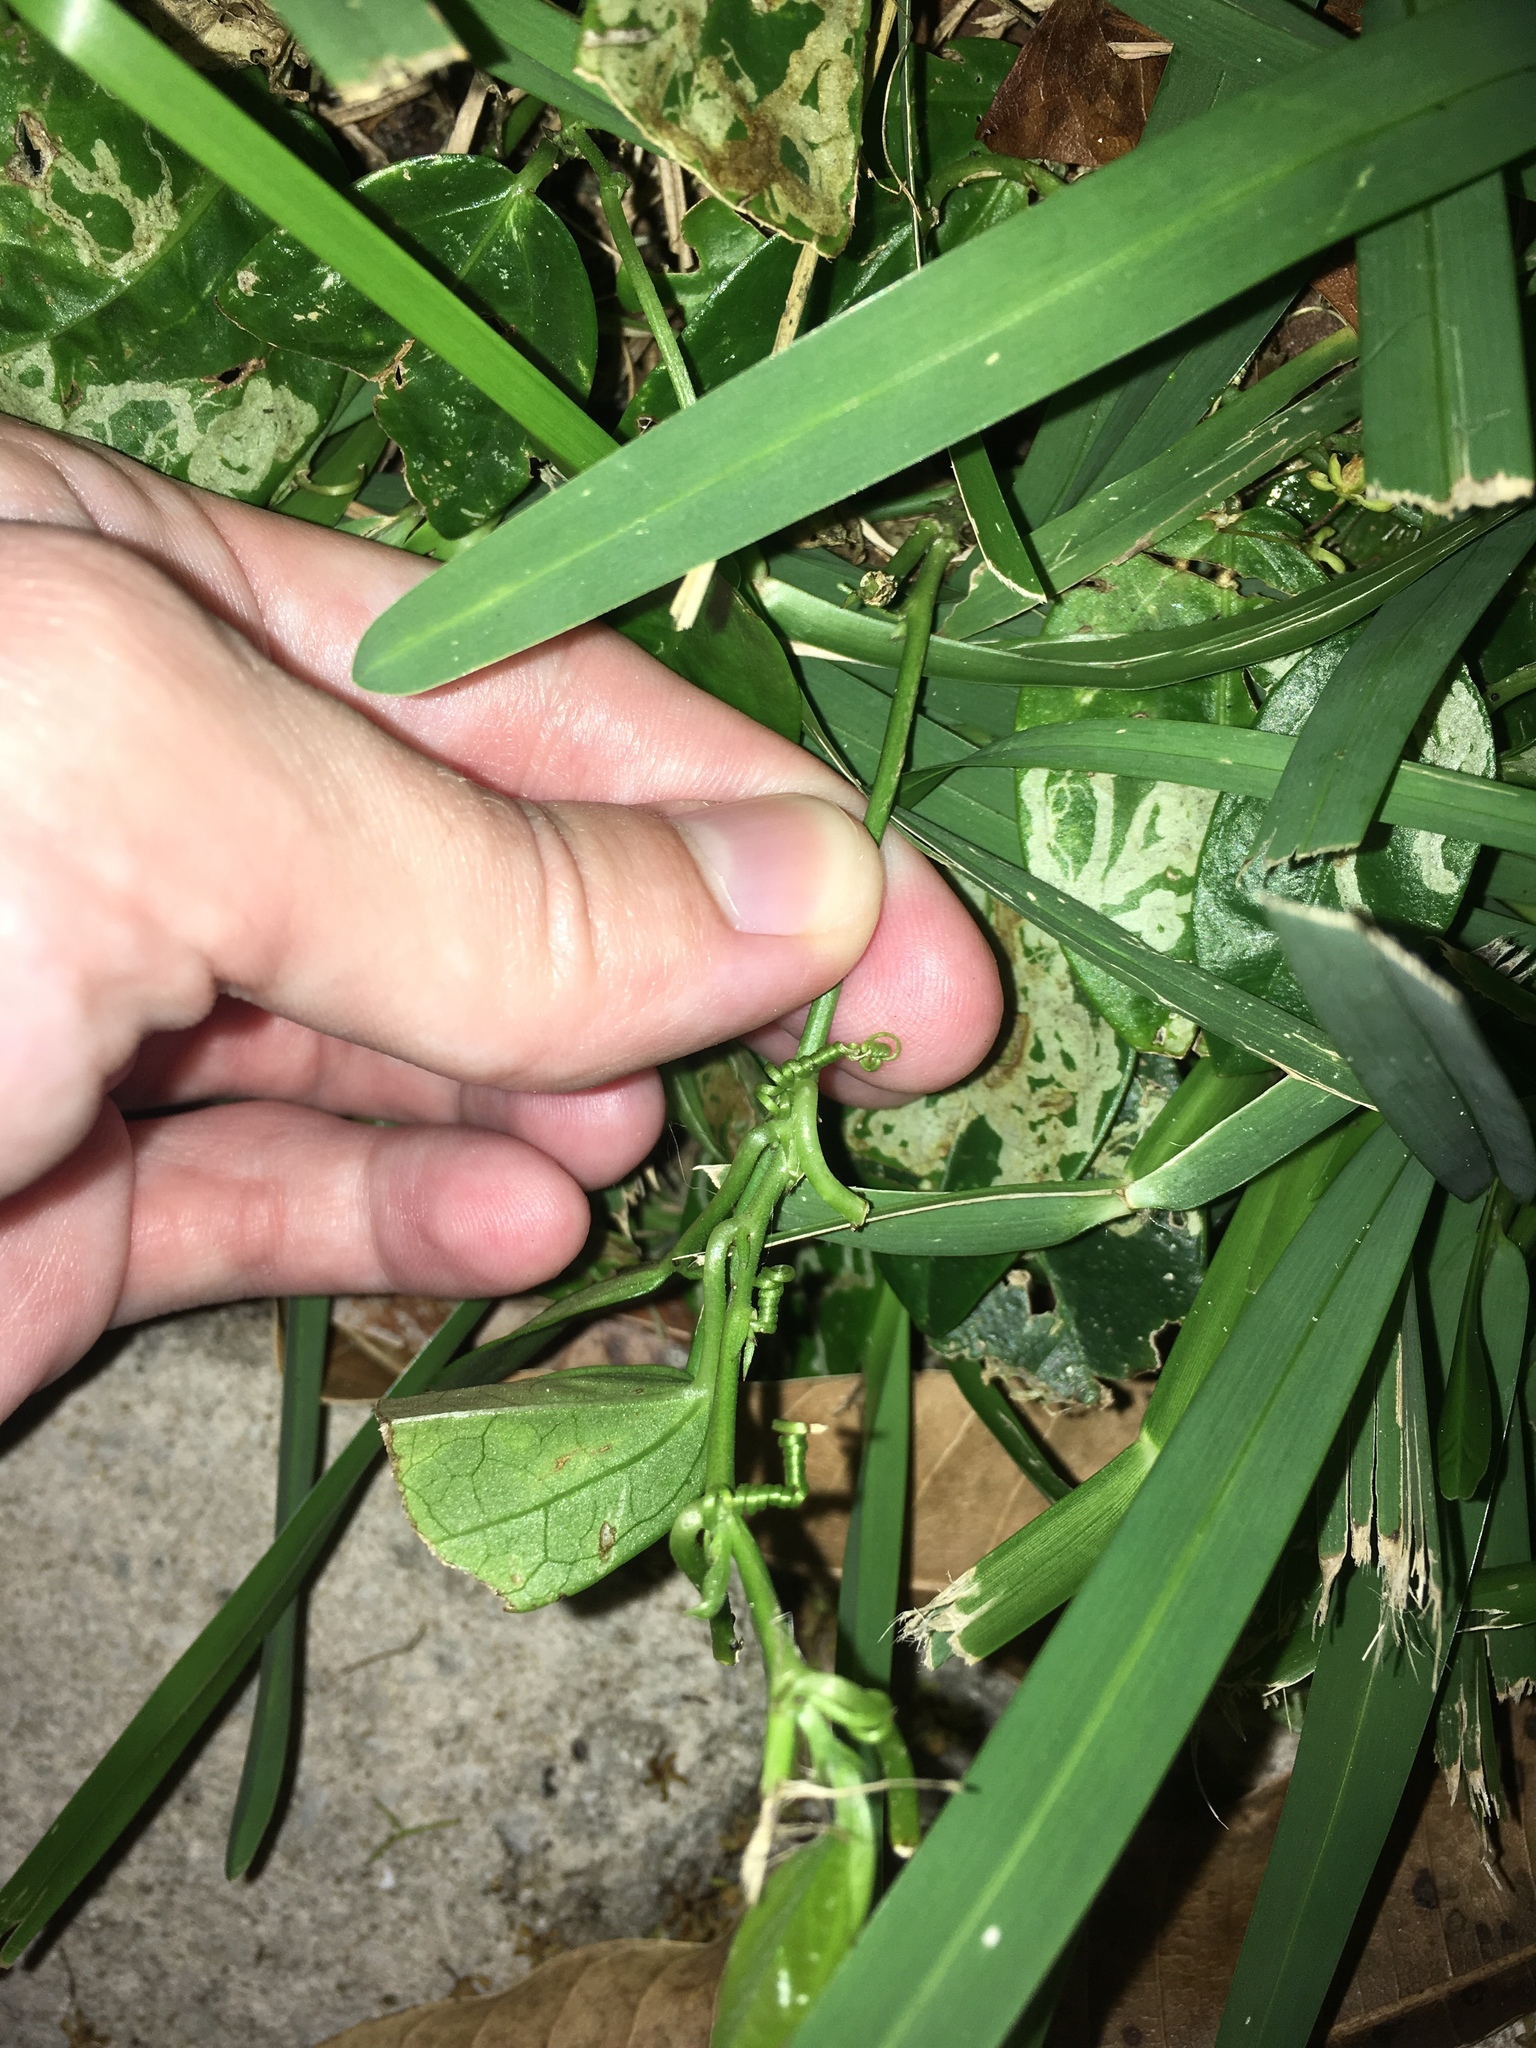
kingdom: Plantae
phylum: Tracheophyta
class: Magnoliopsida
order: Malpighiales
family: Passifloraceae
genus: Passiflora
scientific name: Passiflora pallida
